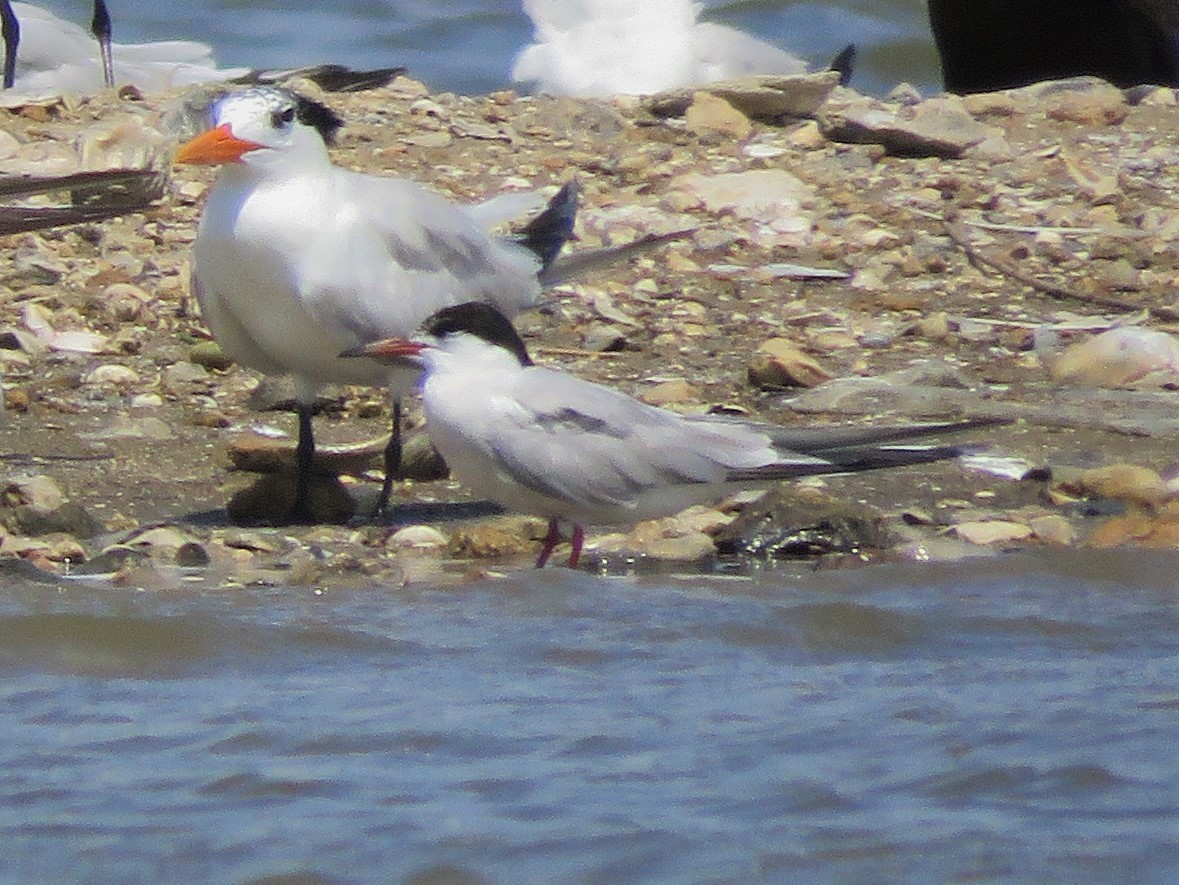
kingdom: Animalia
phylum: Chordata
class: Aves
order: Charadriiformes
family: Laridae
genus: Sterna
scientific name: Sterna hirundo
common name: Common tern
